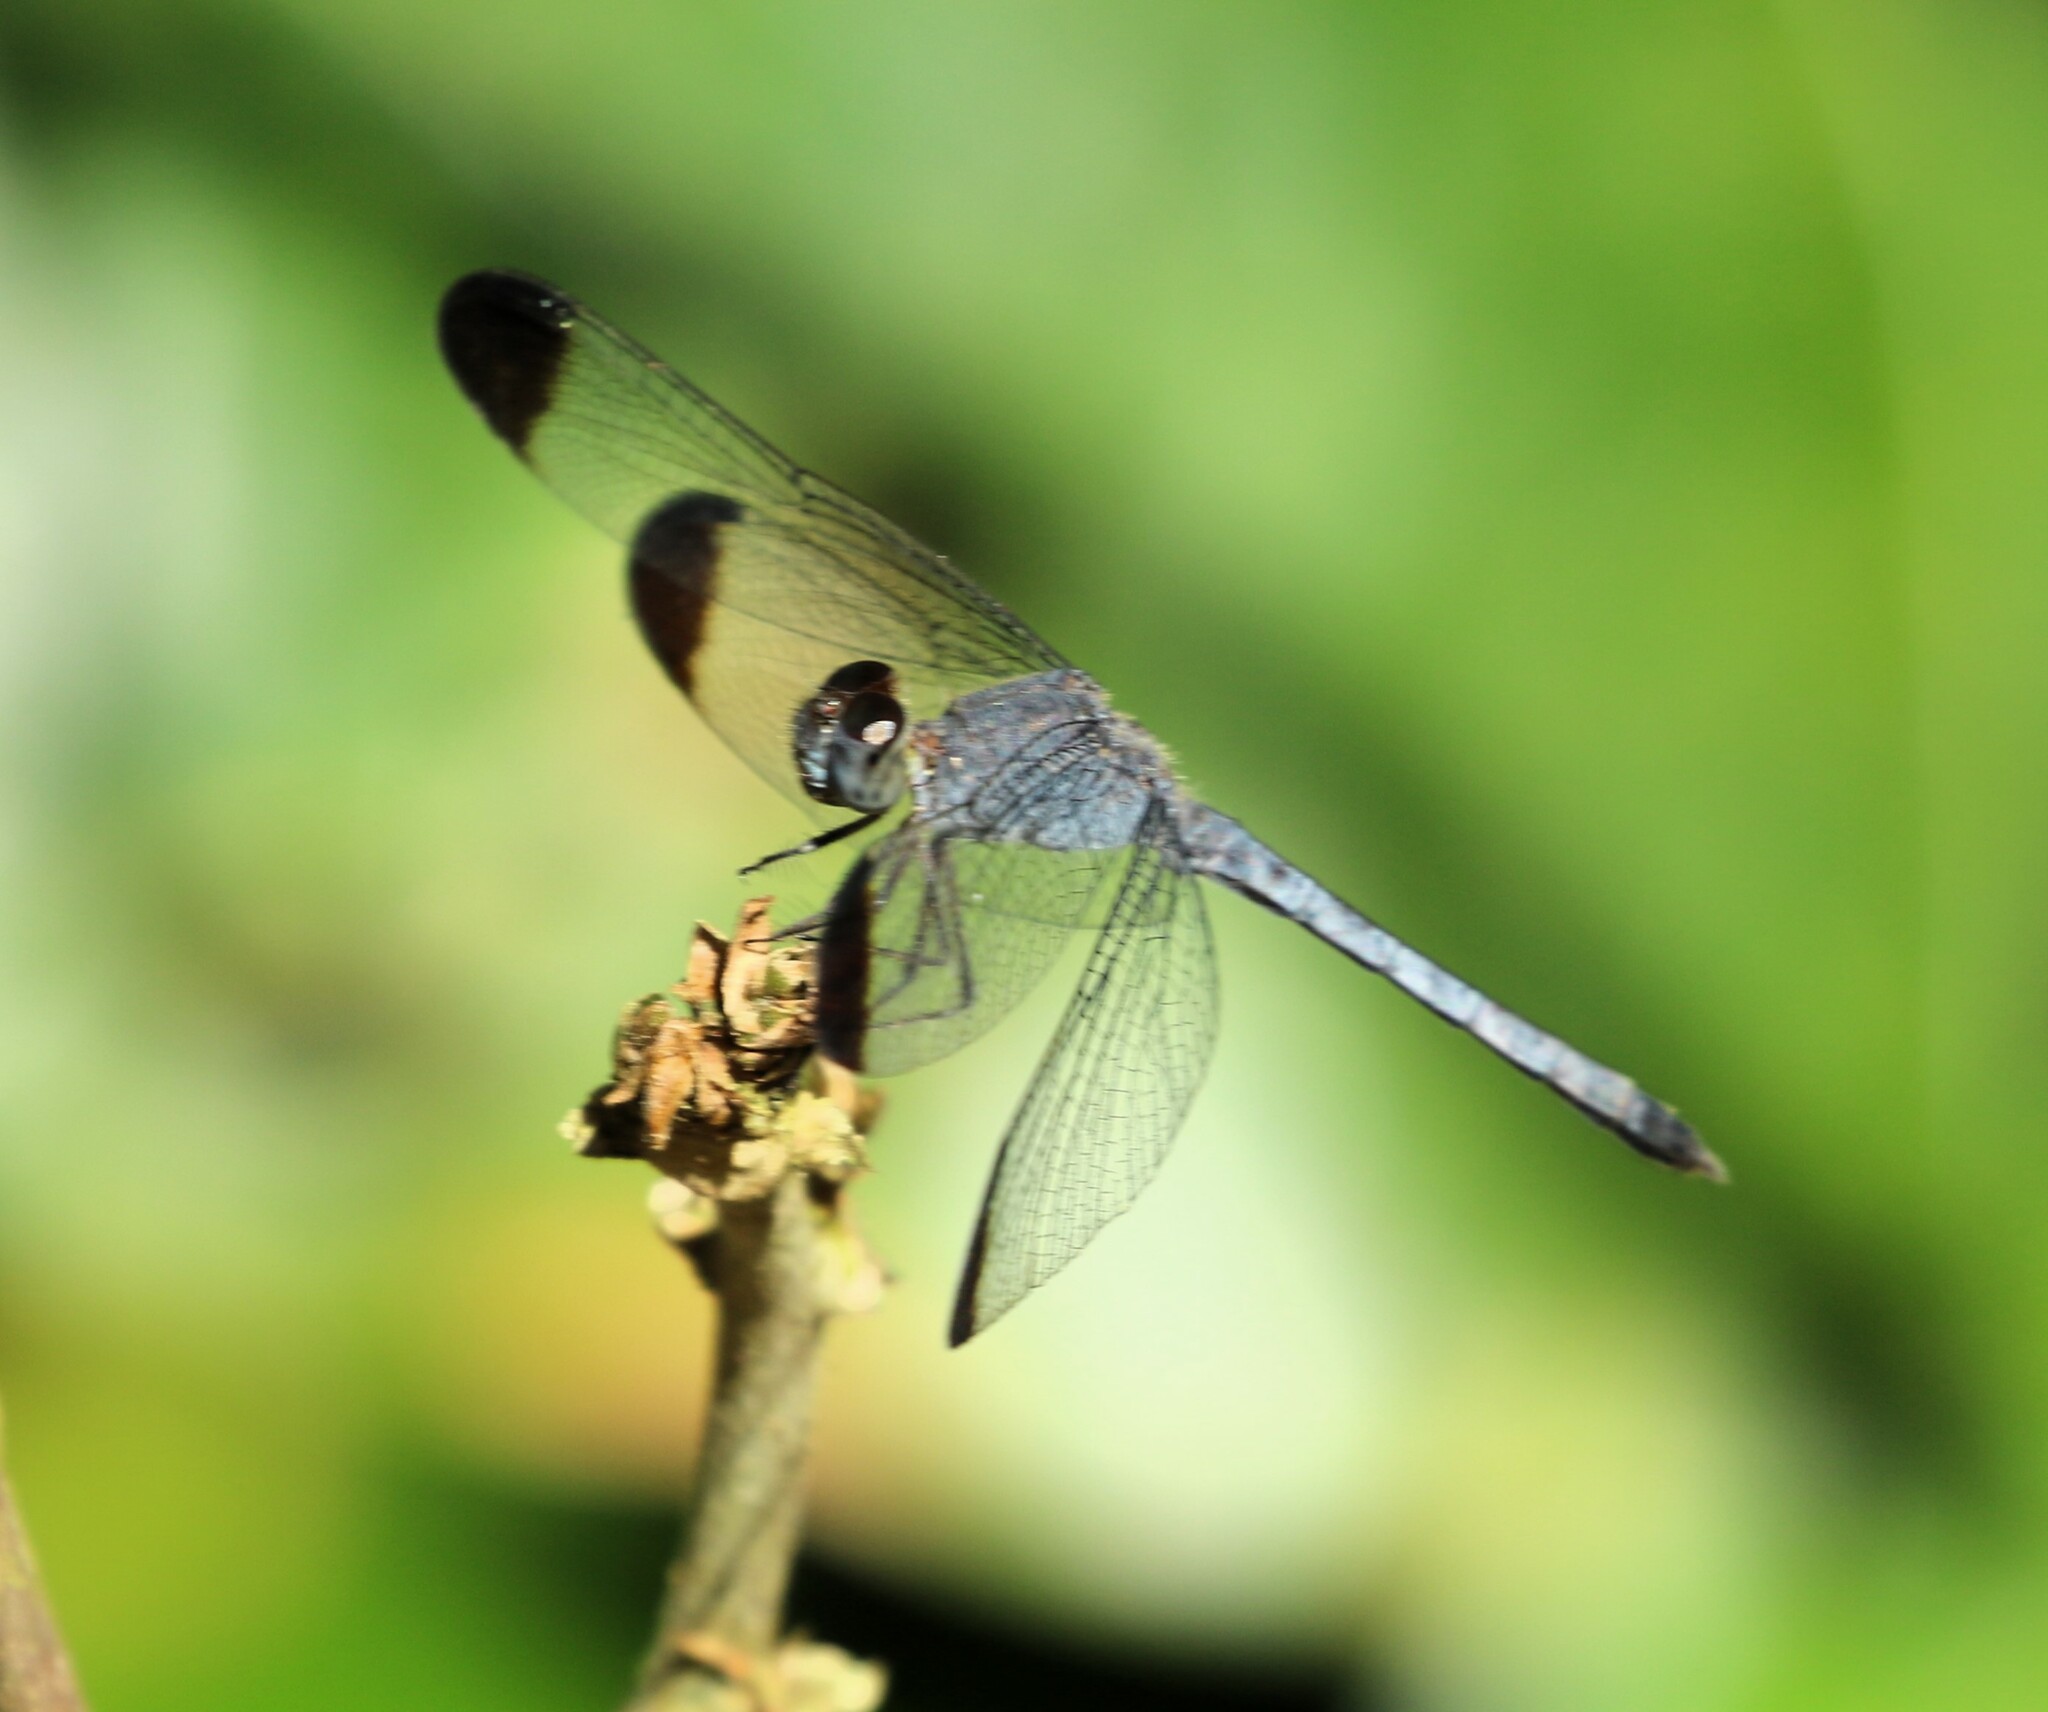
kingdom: Animalia
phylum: Arthropoda
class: Insecta
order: Odonata
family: Libellulidae
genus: Uracis
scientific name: Uracis imbuta
